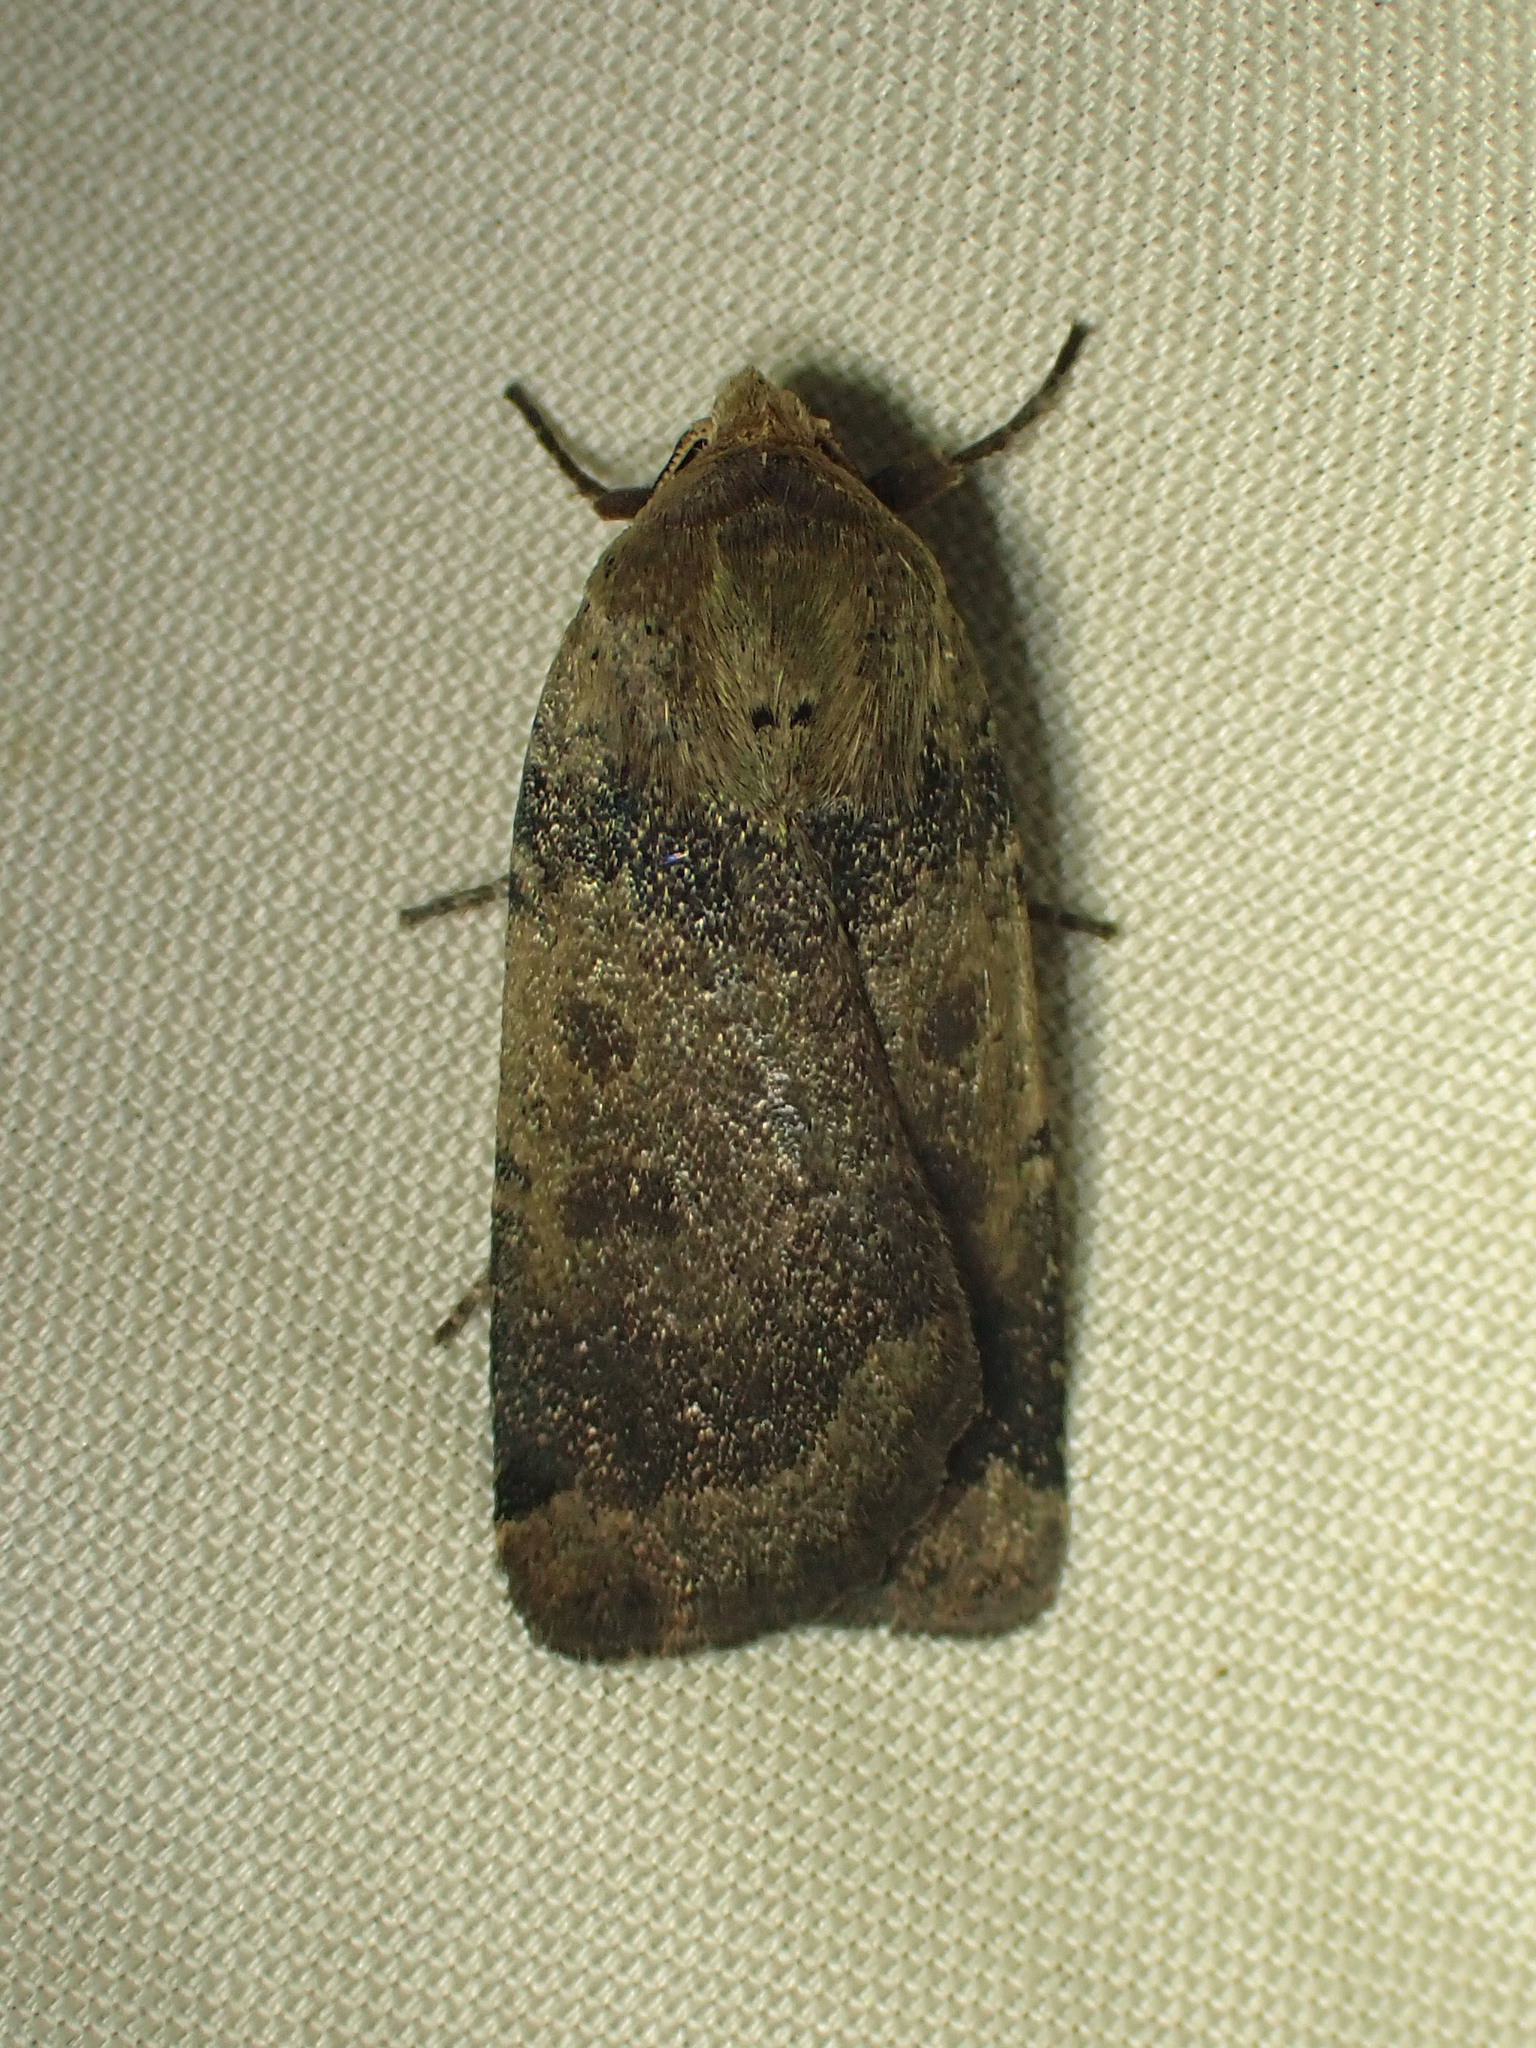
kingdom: Animalia
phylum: Arthropoda
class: Insecta
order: Lepidoptera
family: Noctuidae
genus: Abagrotis
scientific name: Abagrotis placida
